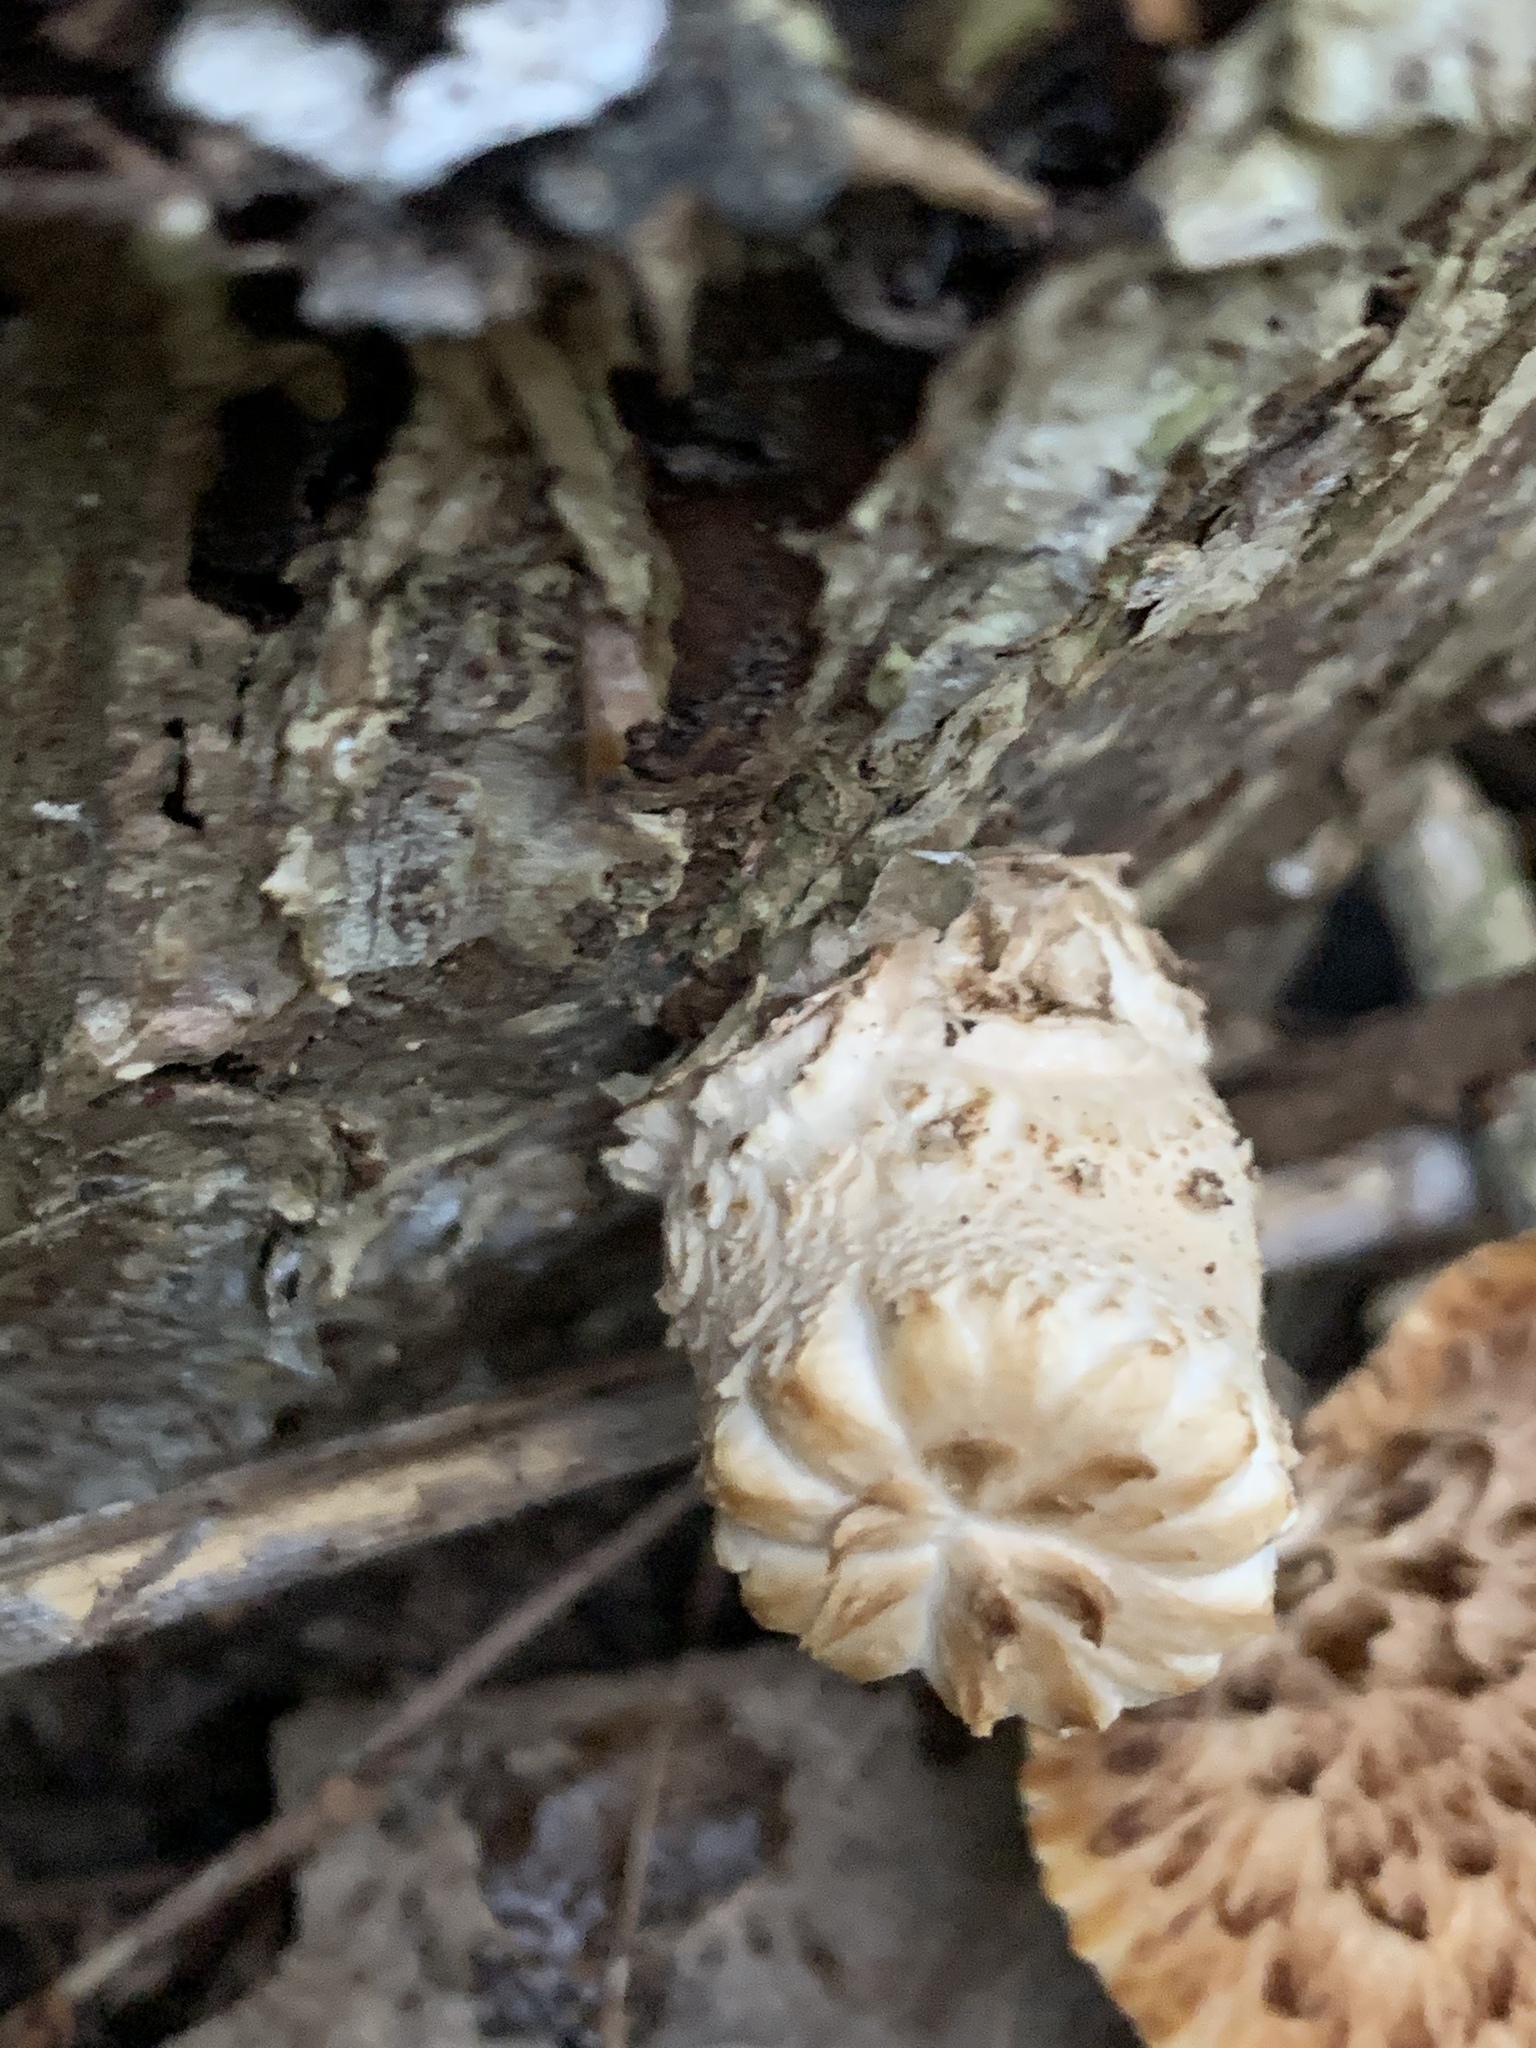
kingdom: Fungi
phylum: Basidiomycota
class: Agaricomycetes
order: Polyporales
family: Polyporaceae
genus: Cerioporus
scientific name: Cerioporus squamosus
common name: Dryad's saddle
